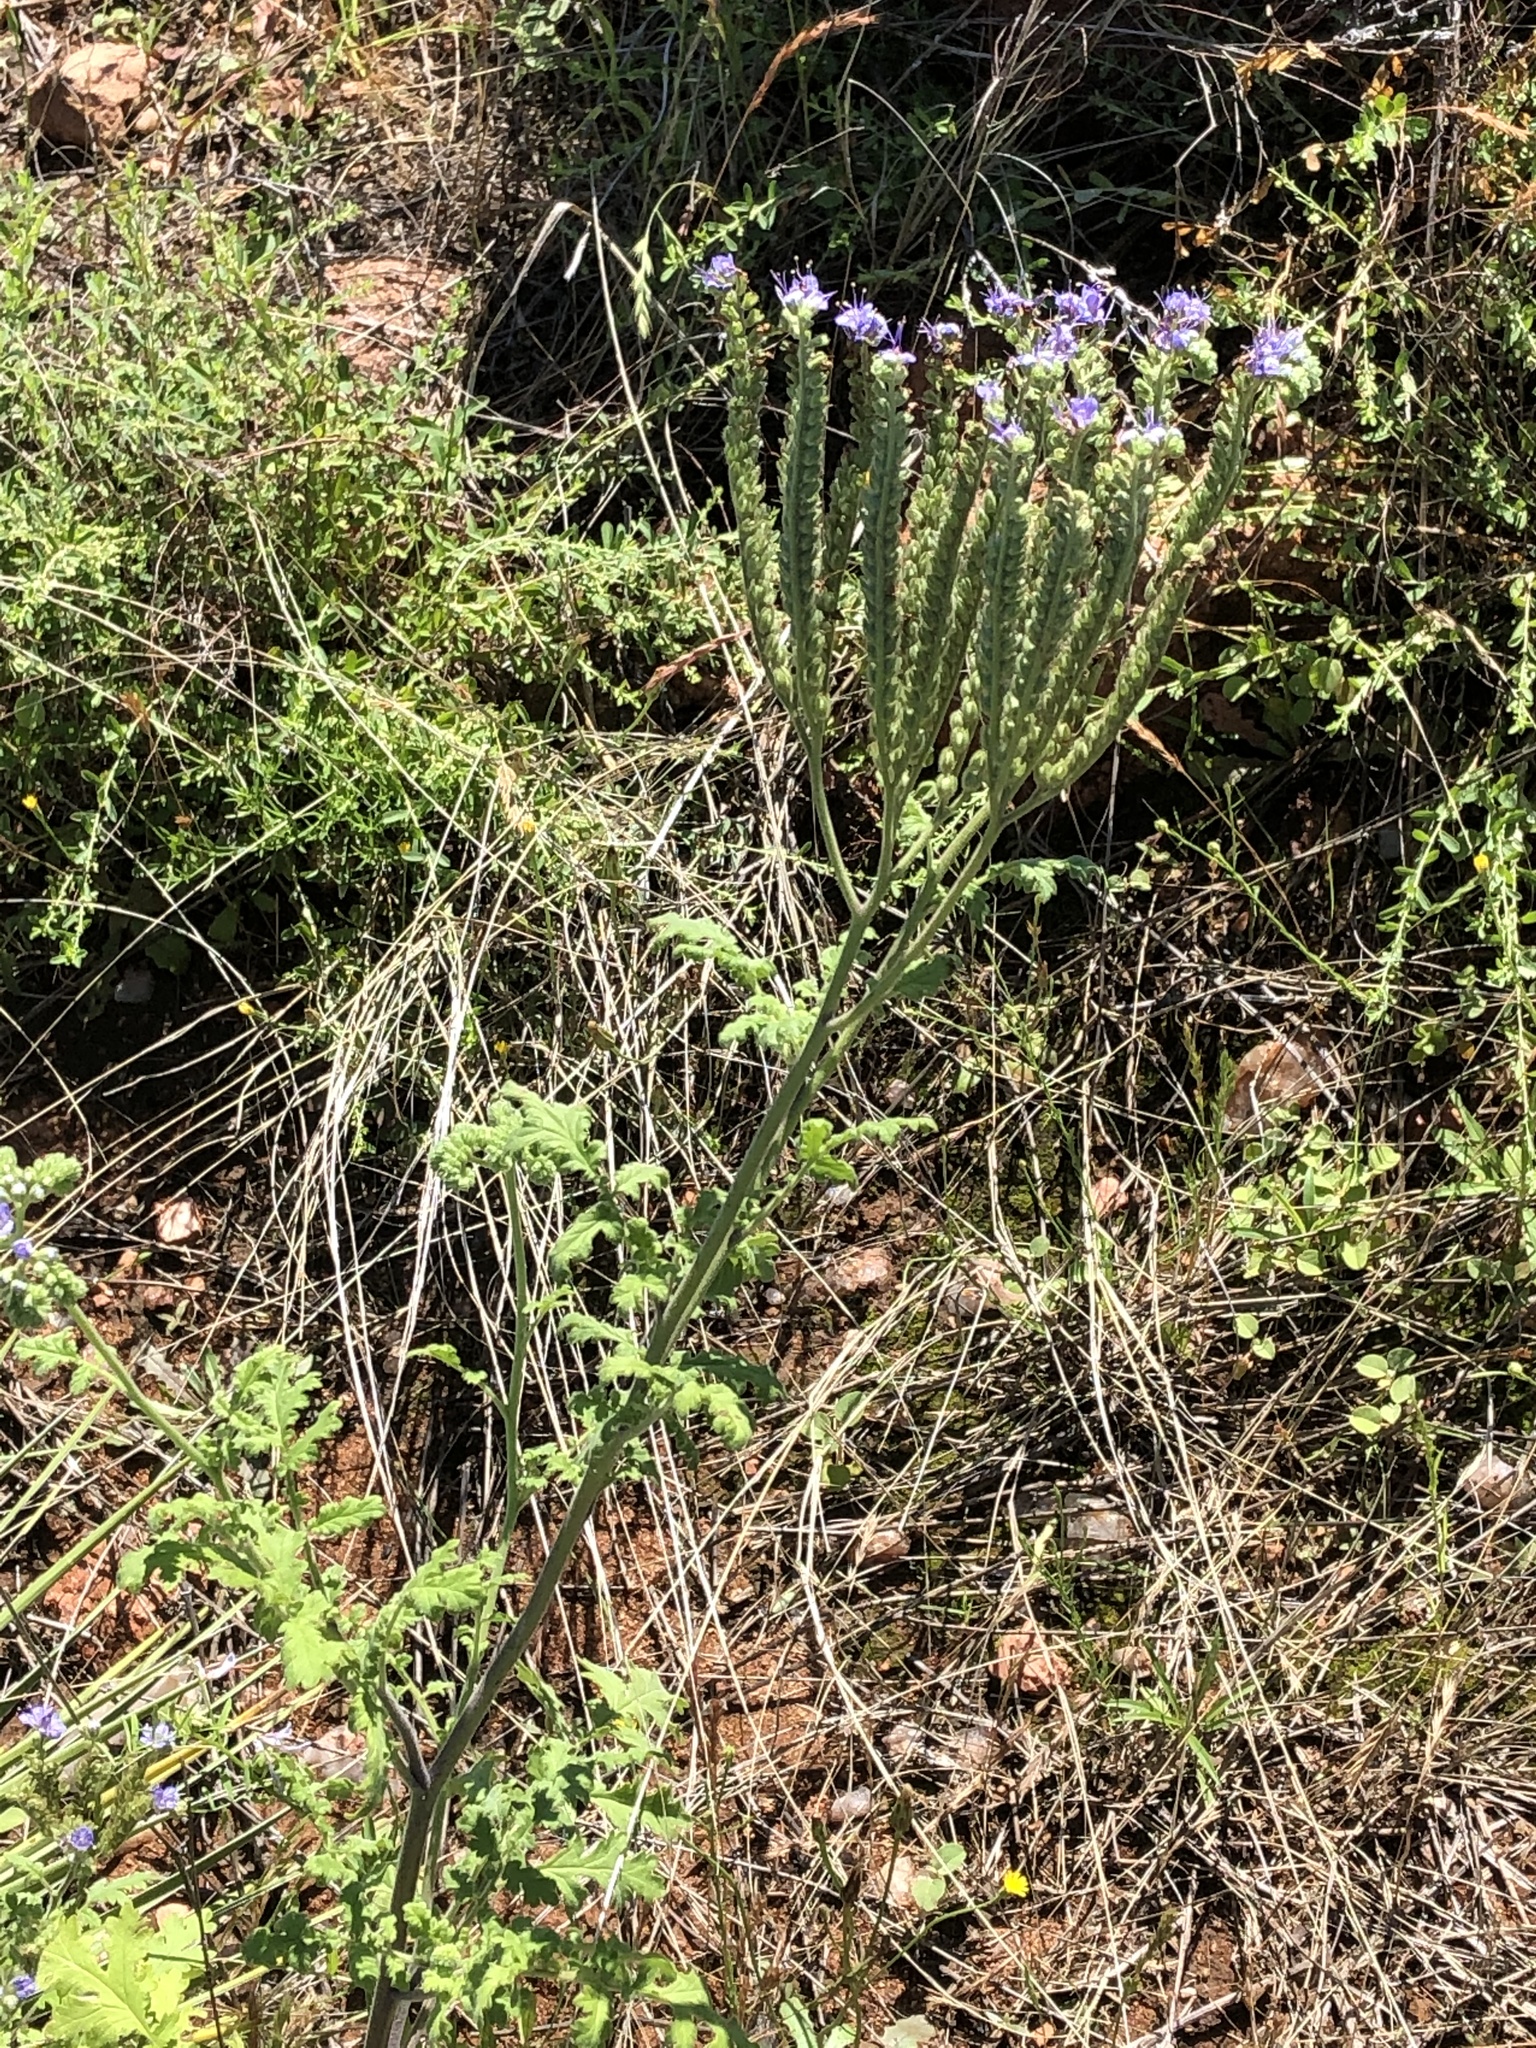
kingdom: Plantae
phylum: Tracheophyta
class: Magnoliopsida
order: Boraginales
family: Hydrophyllaceae
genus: Phacelia
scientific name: Phacelia congesta
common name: Blue curls
